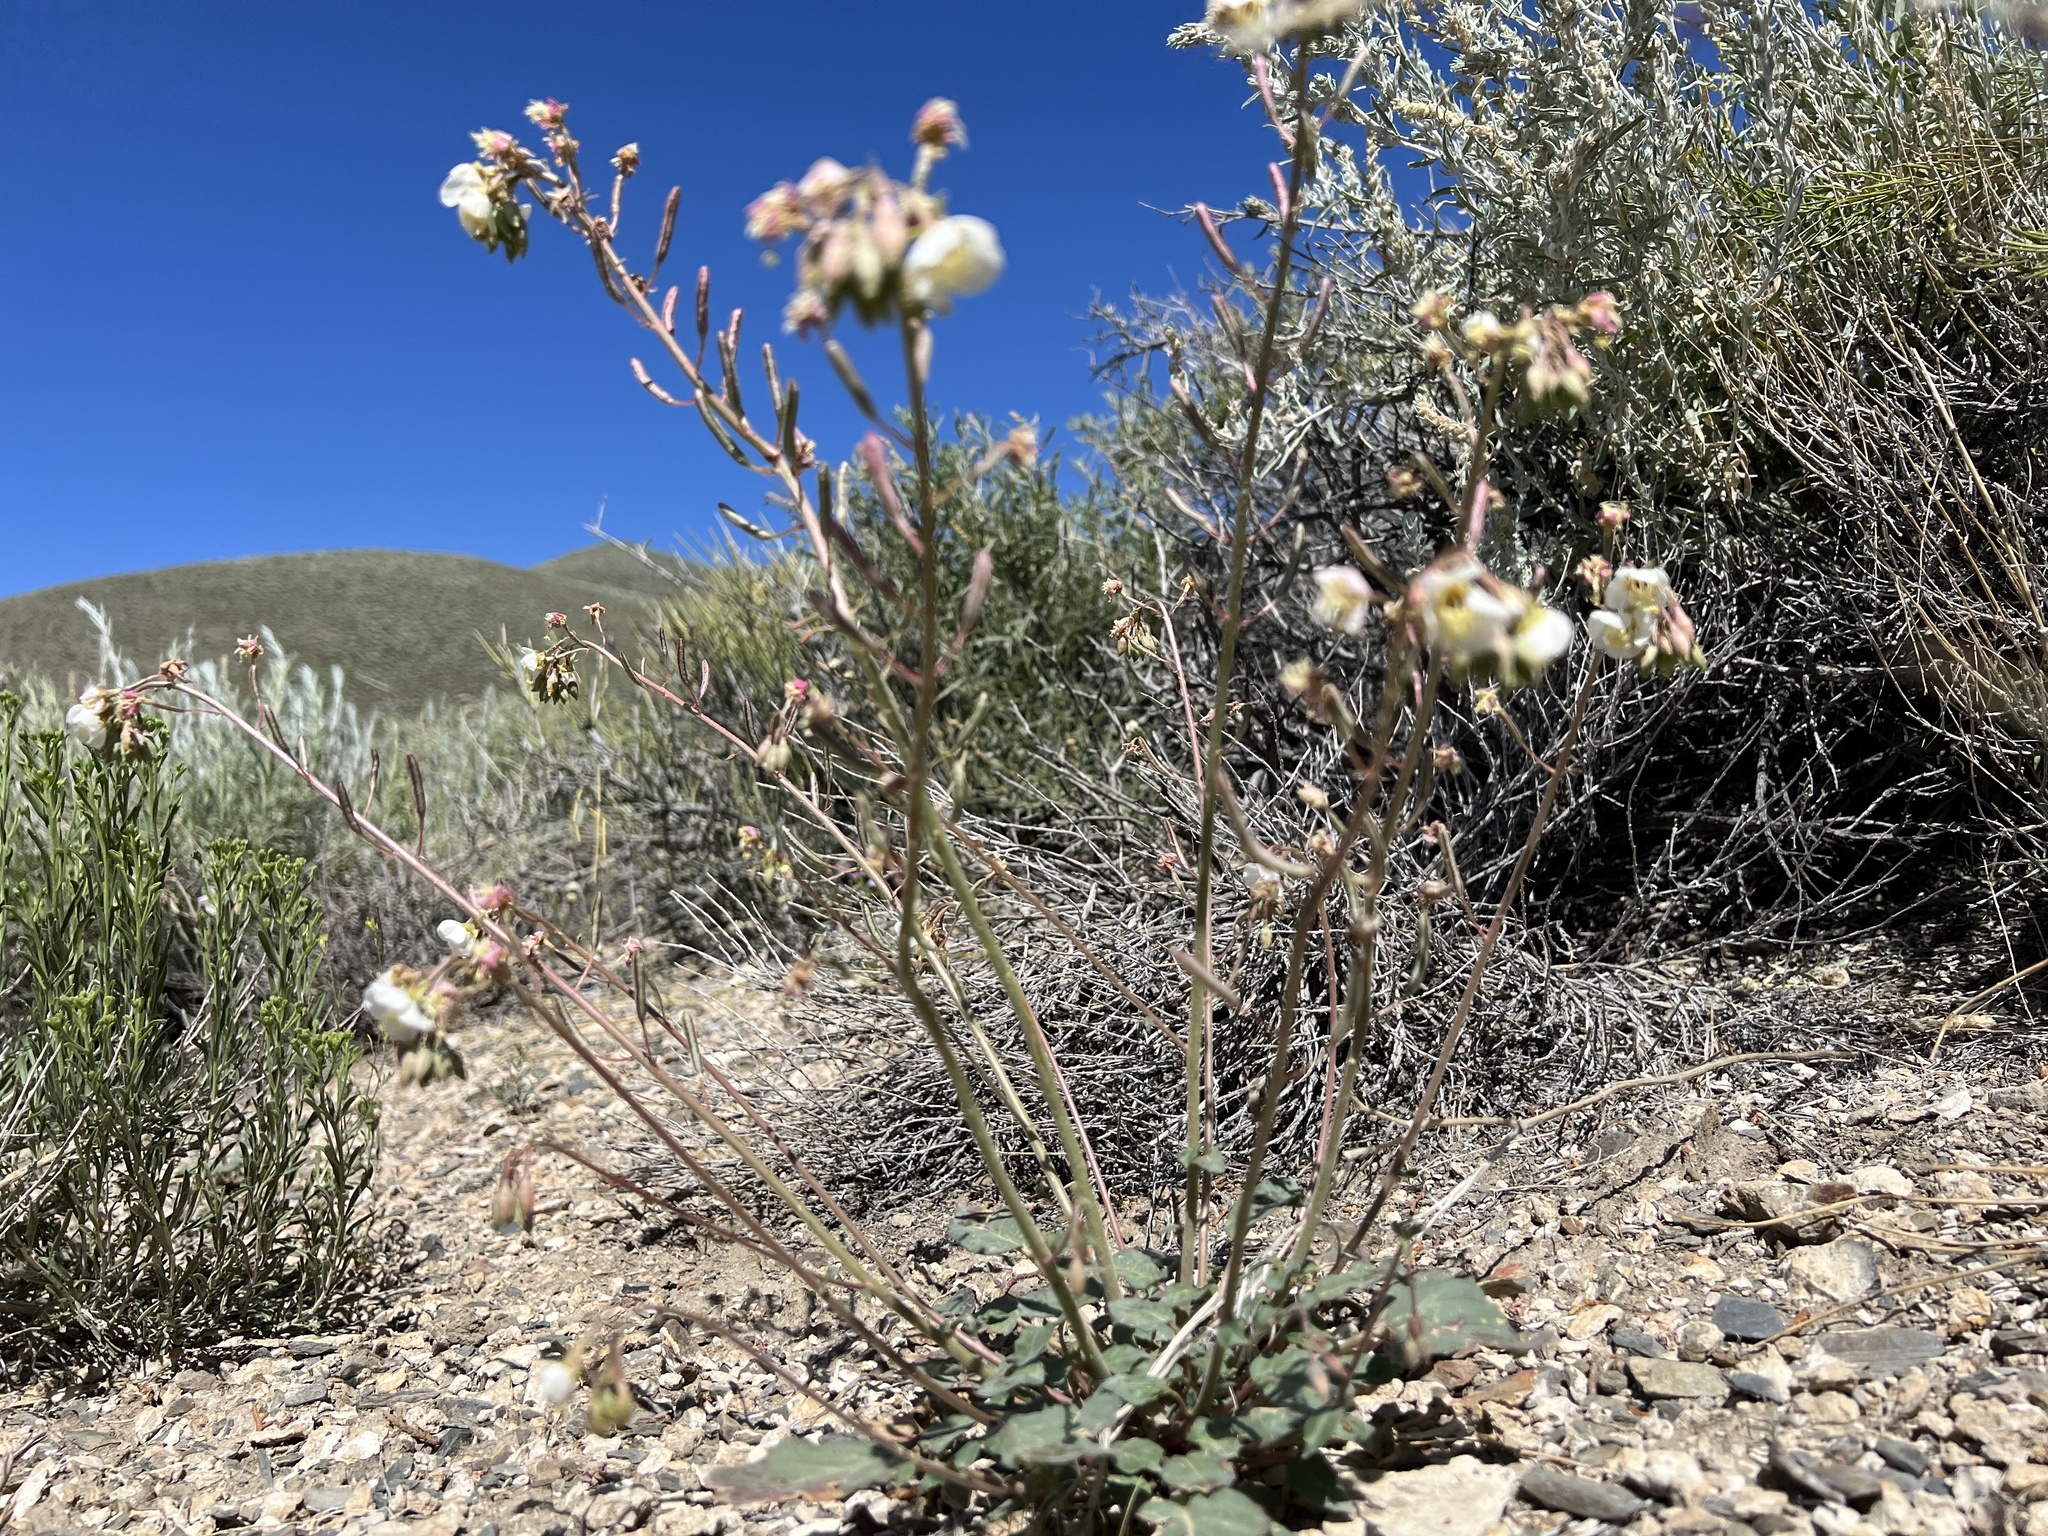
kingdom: Plantae
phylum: Tracheophyta
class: Magnoliopsida
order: Myrtales
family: Onagraceae
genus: Chylismia
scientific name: Chylismia claviformis
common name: Browneyes
